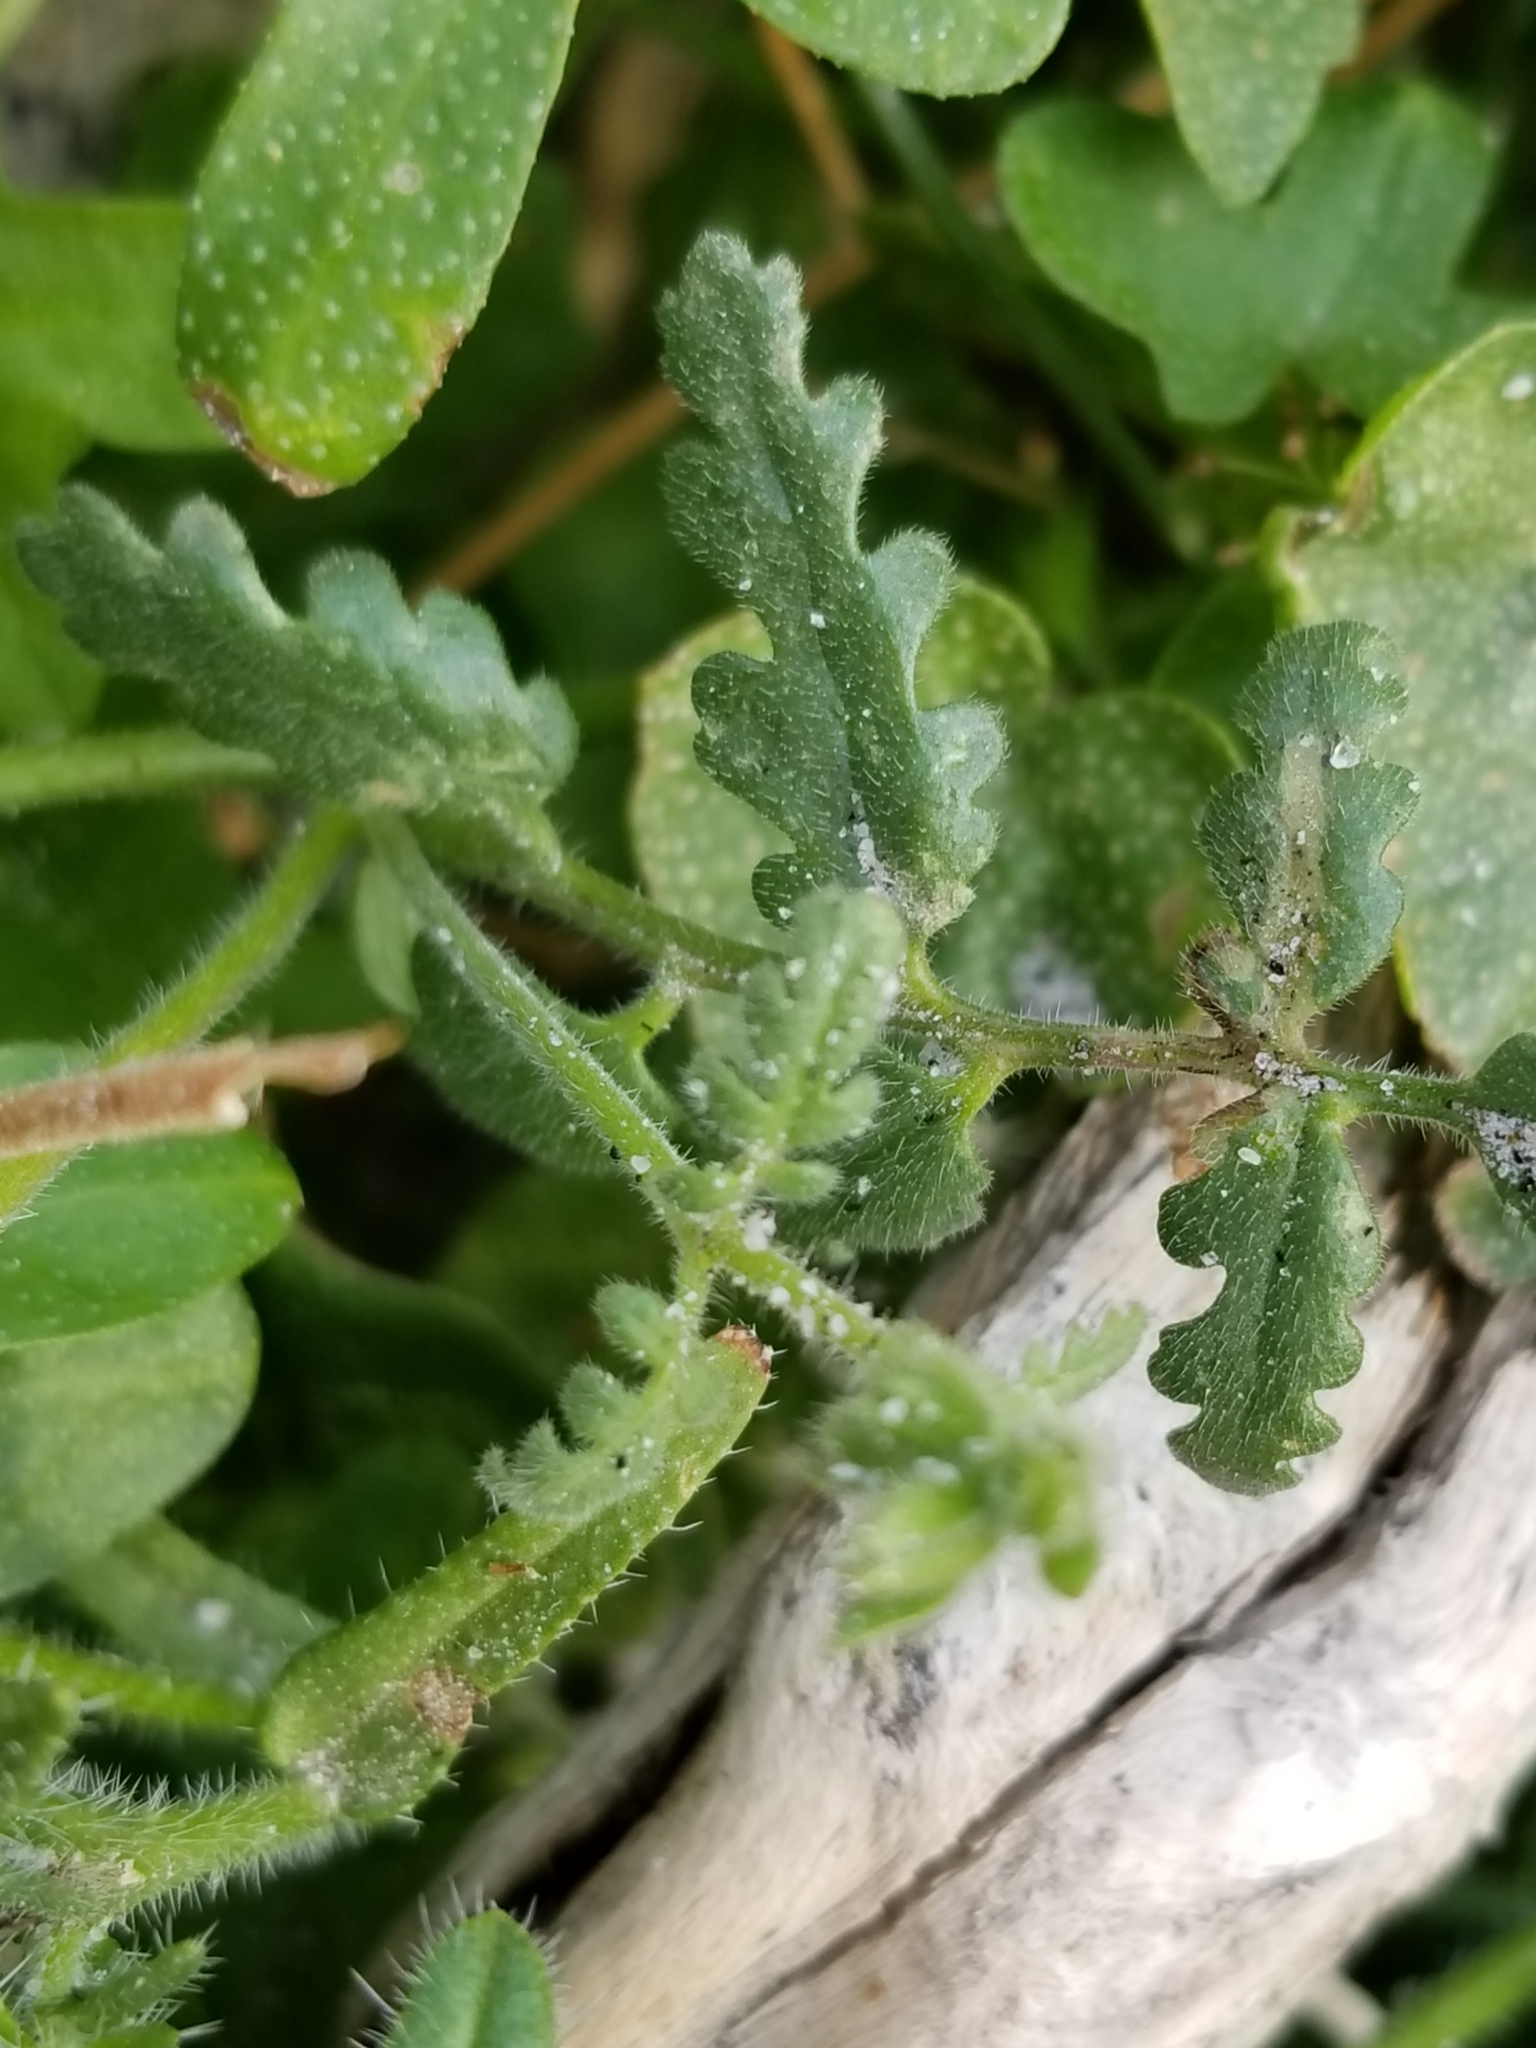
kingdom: Plantae
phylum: Tracheophyta
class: Magnoliopsida
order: Boraginales
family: Hydrophyllaceae
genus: Phacelia
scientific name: Phacelia distans
